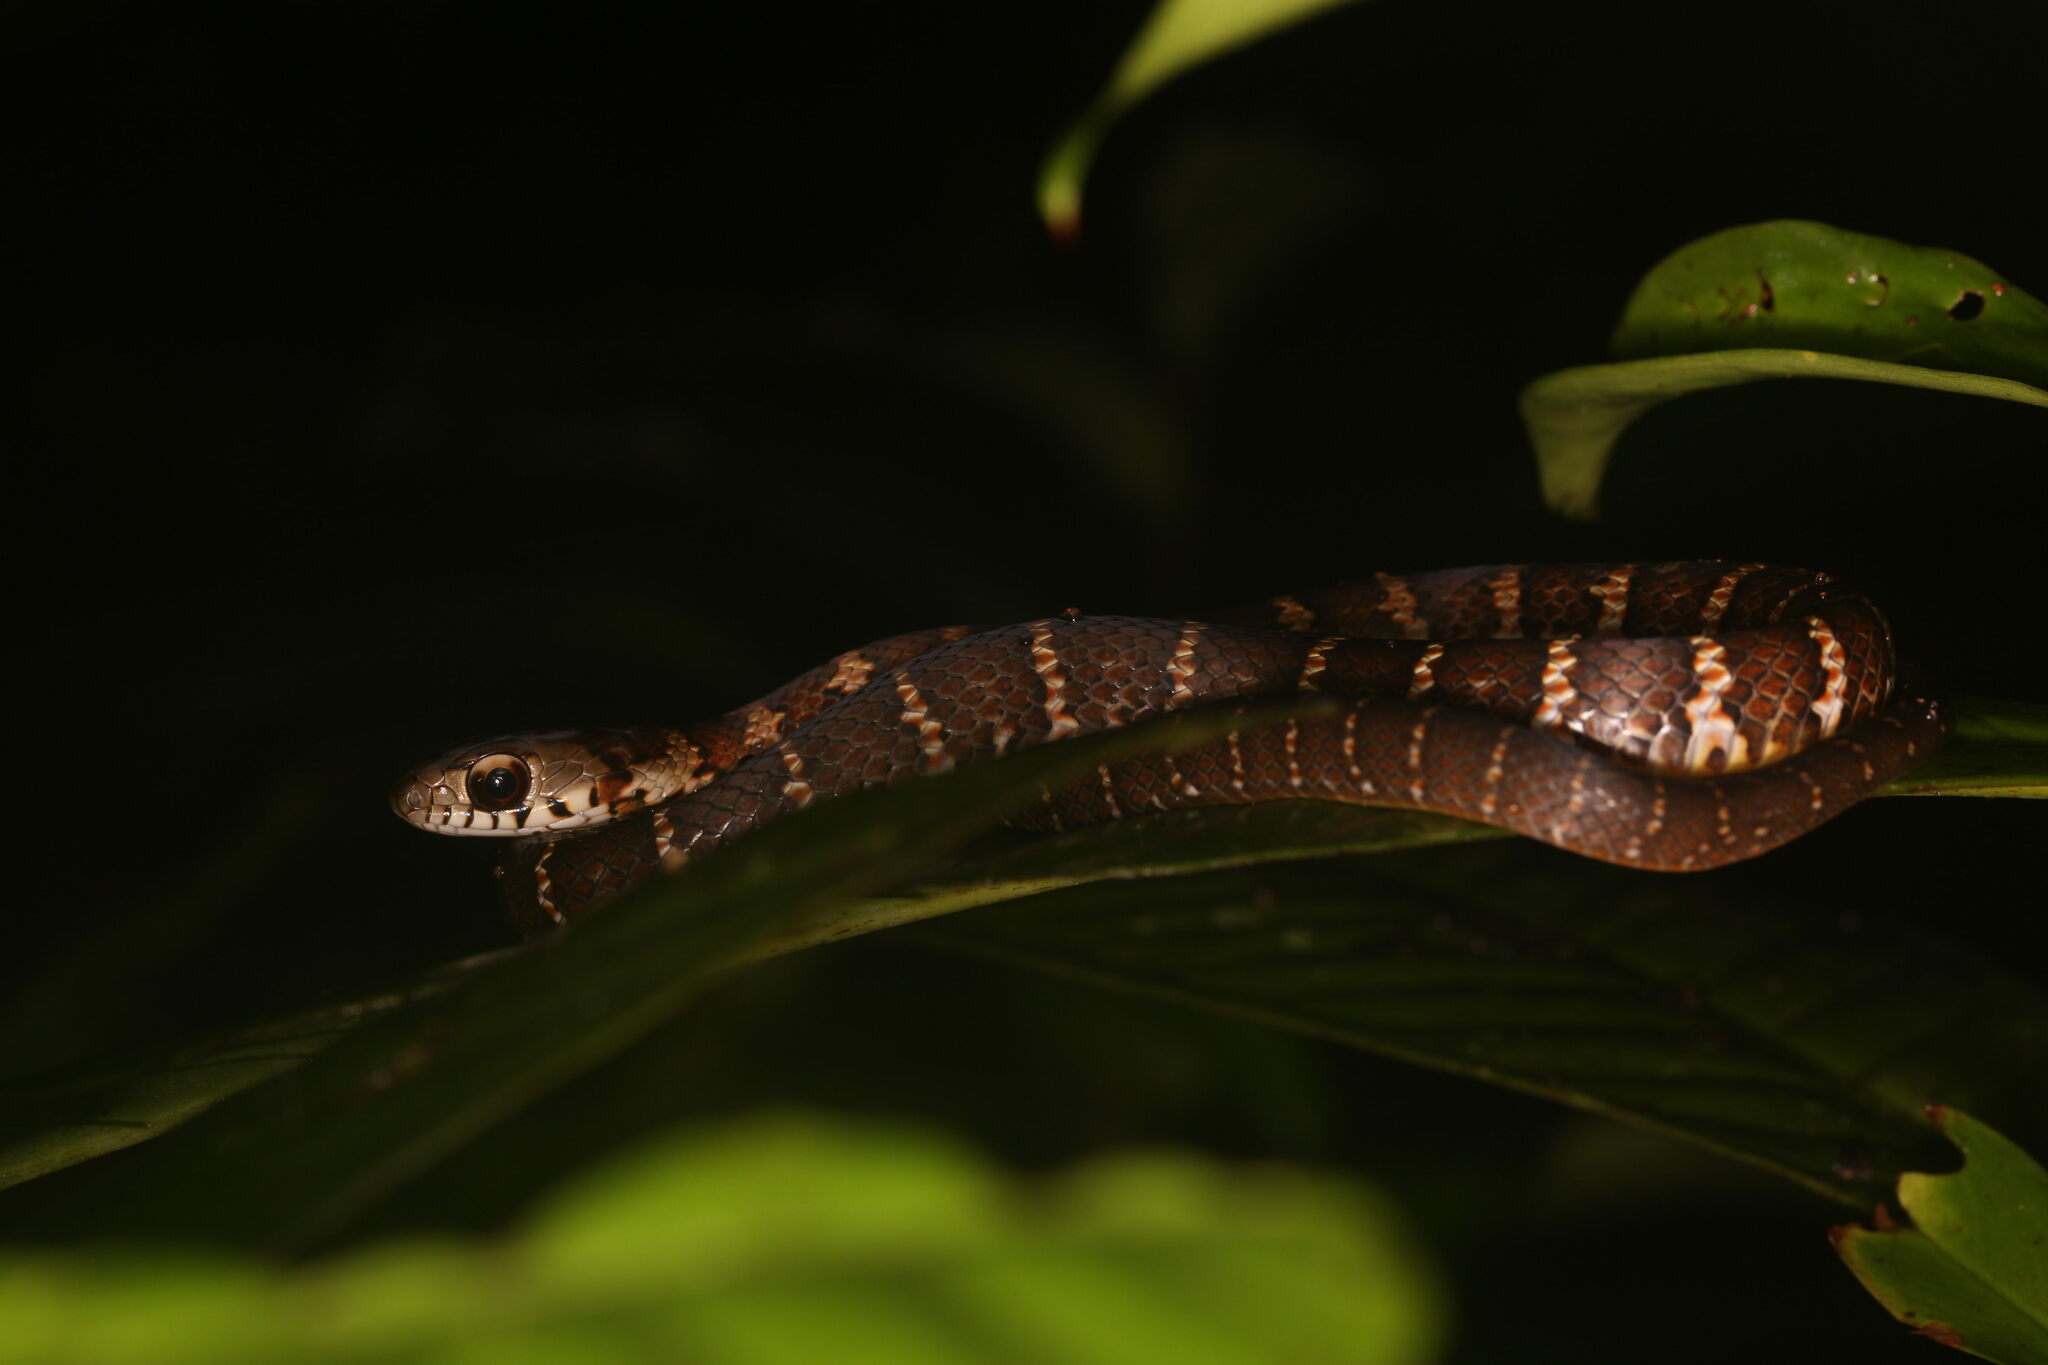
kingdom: Animalia
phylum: Chordata
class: Squamata
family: Colubridae
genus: Drymoluber
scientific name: Drymoluber dichrous
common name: Northern woodland racer
